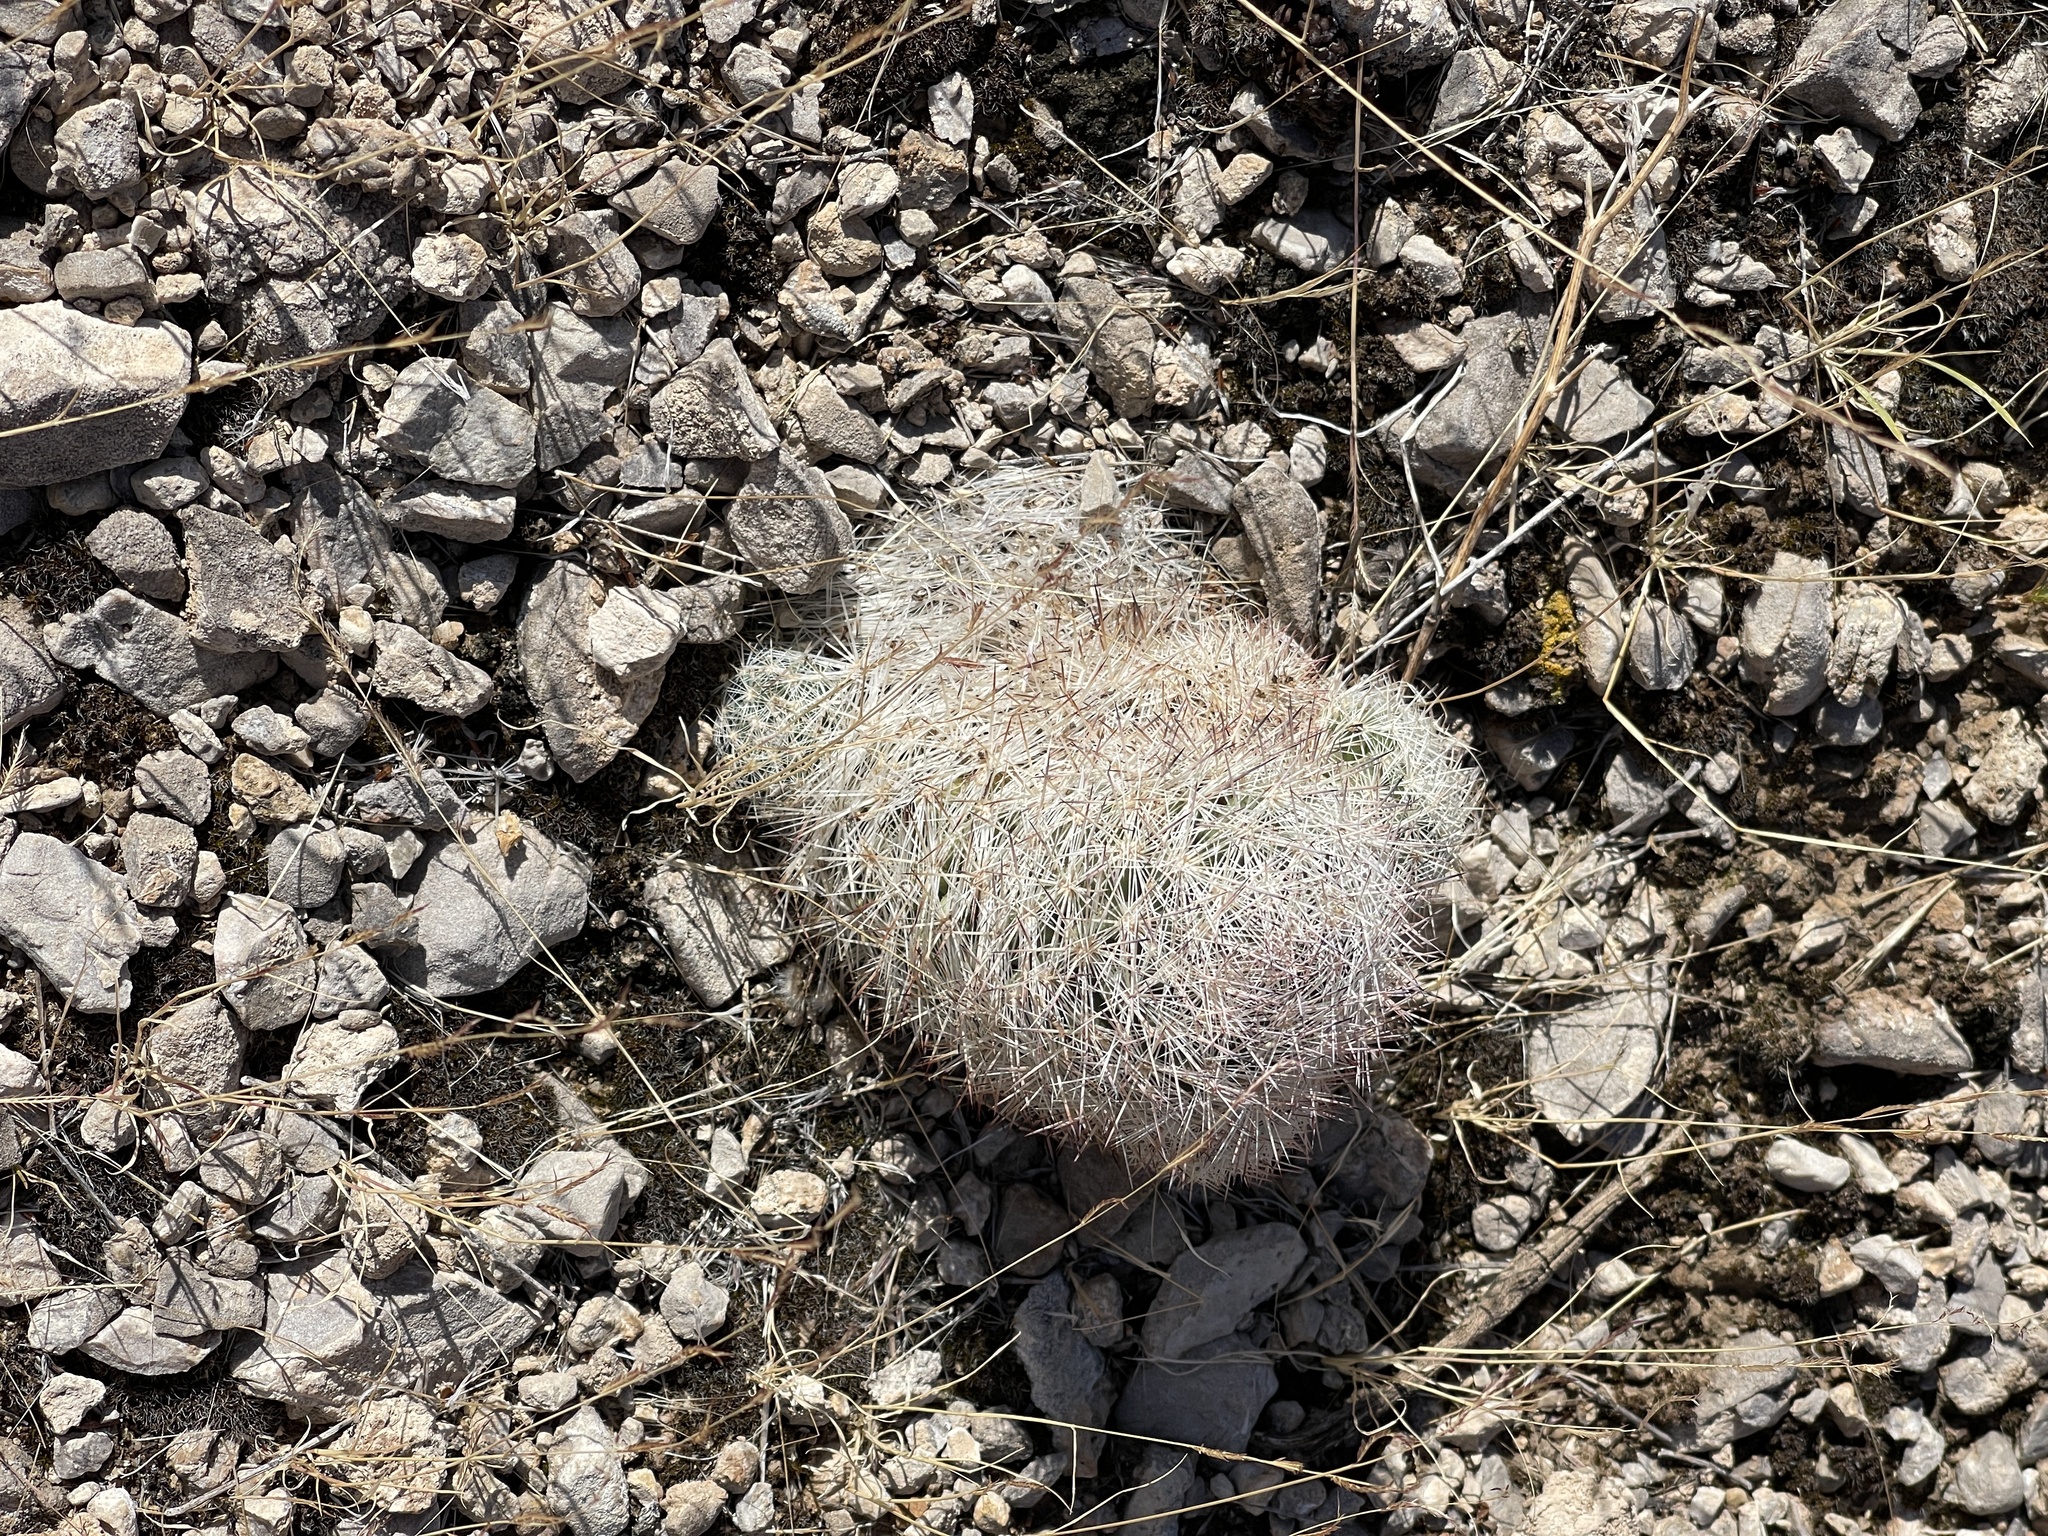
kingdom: Plantae
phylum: Tracheophyta
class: Magnoliopsida
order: Caryophyllales
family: Cactaceae
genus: Pelecyphora
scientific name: Pelecyphora dasyacantha
